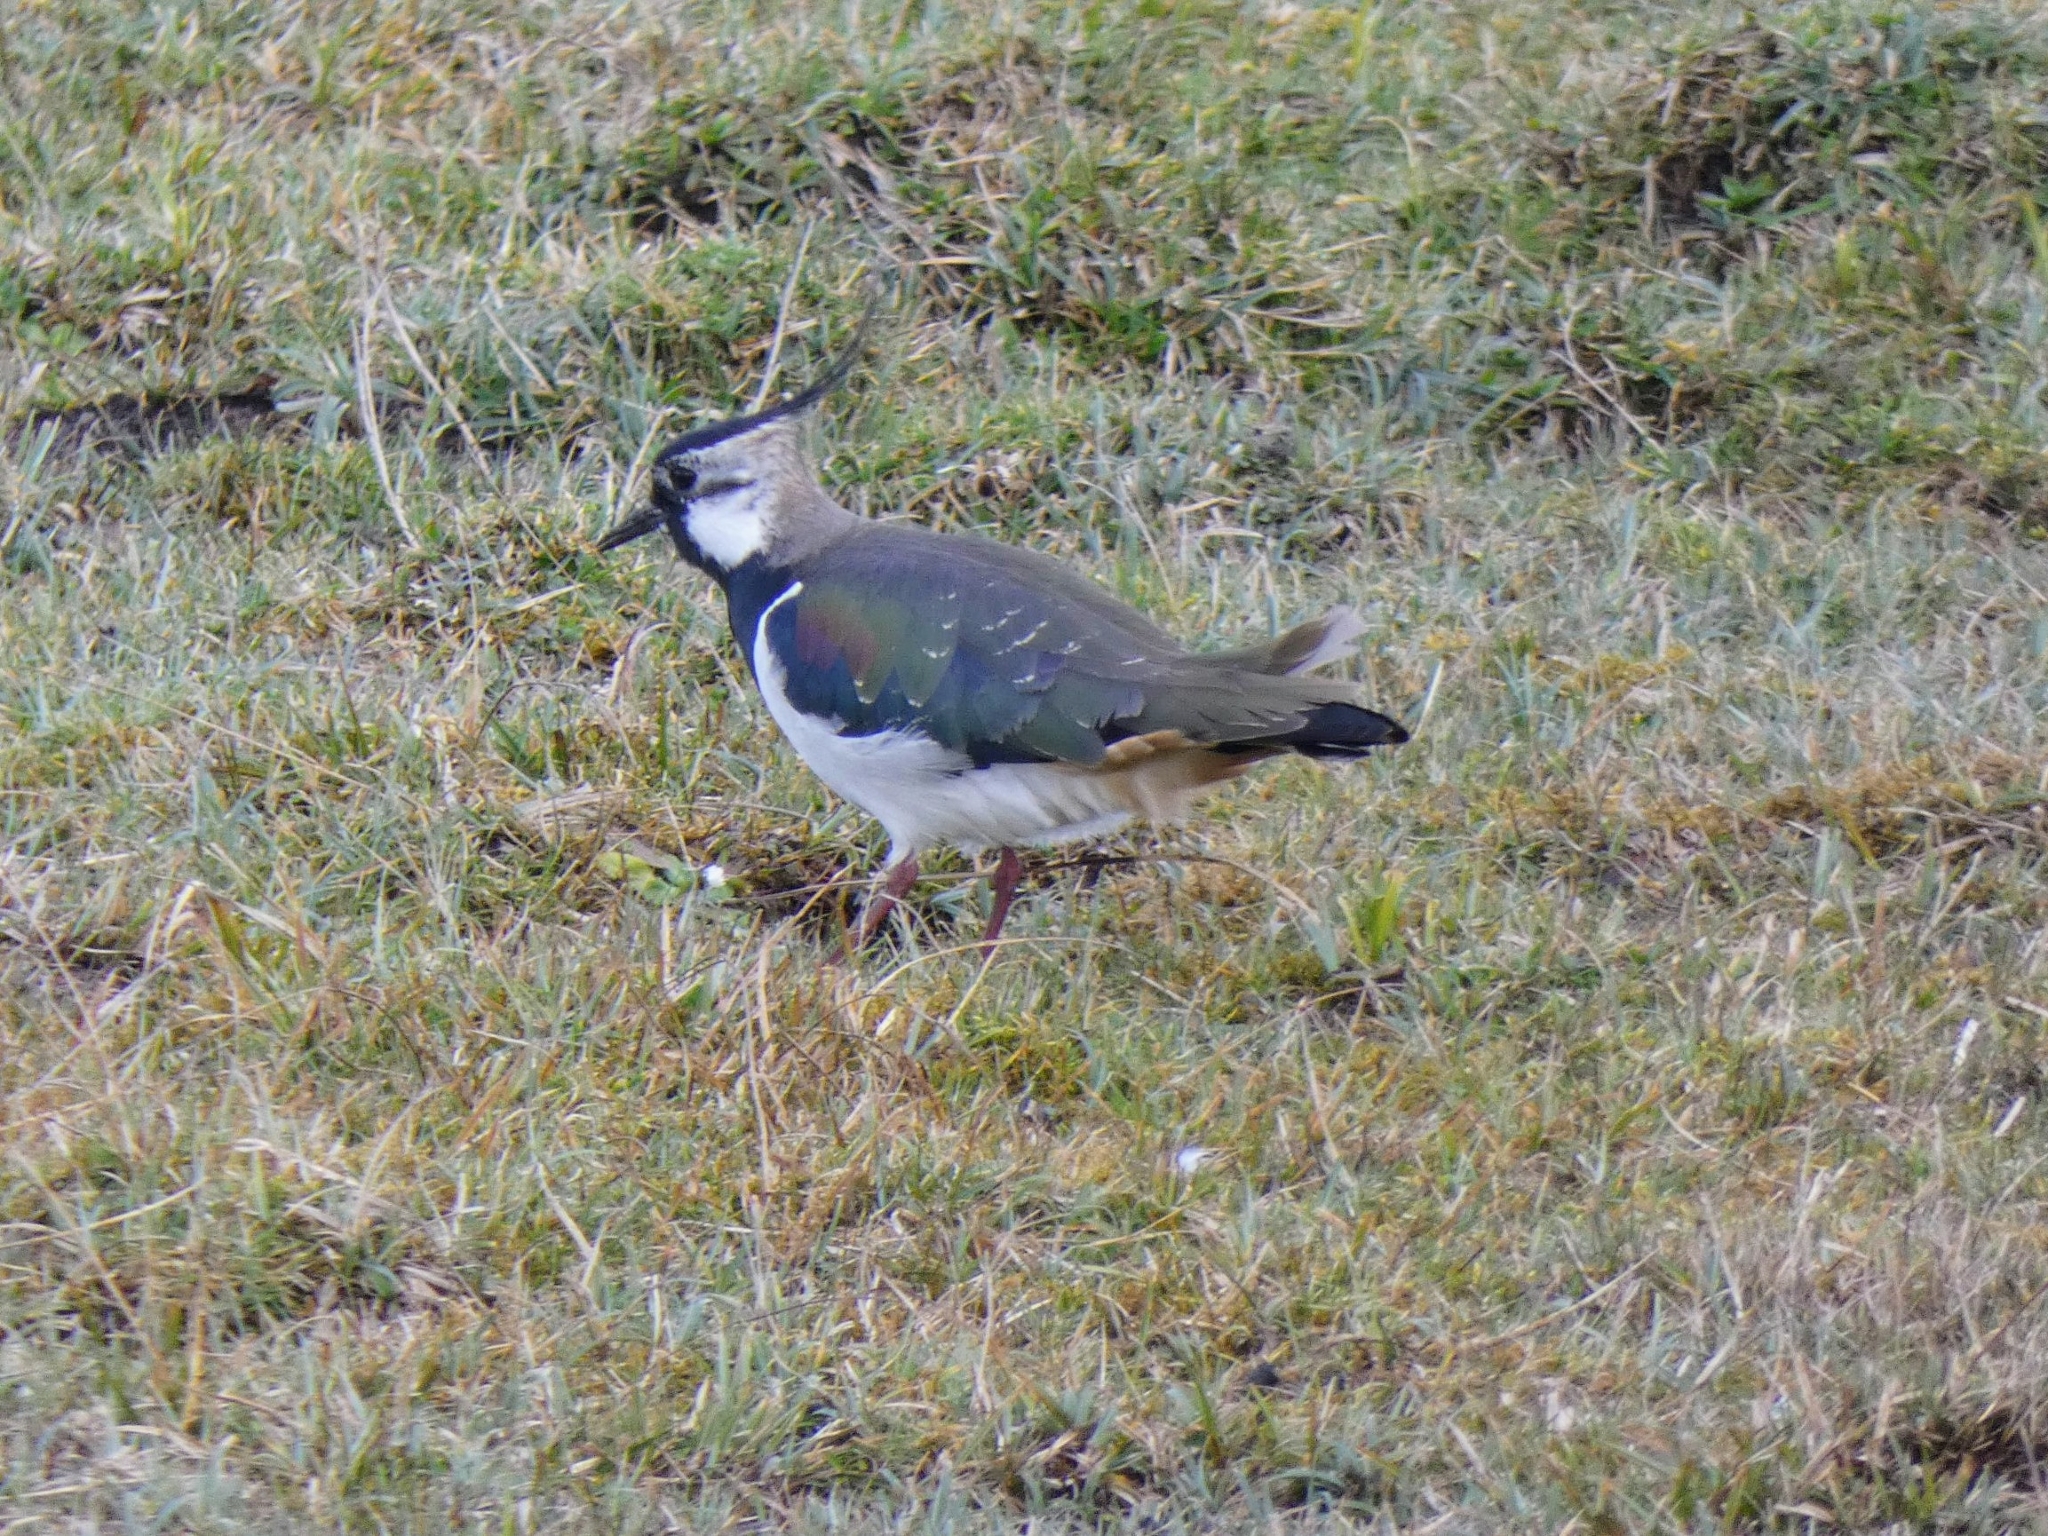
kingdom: Animalia
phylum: Chordata
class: Aves
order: Charadriiformes
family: Charadriidae
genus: Vanellus
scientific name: Vanellus vanellus
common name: Northern lapwing
